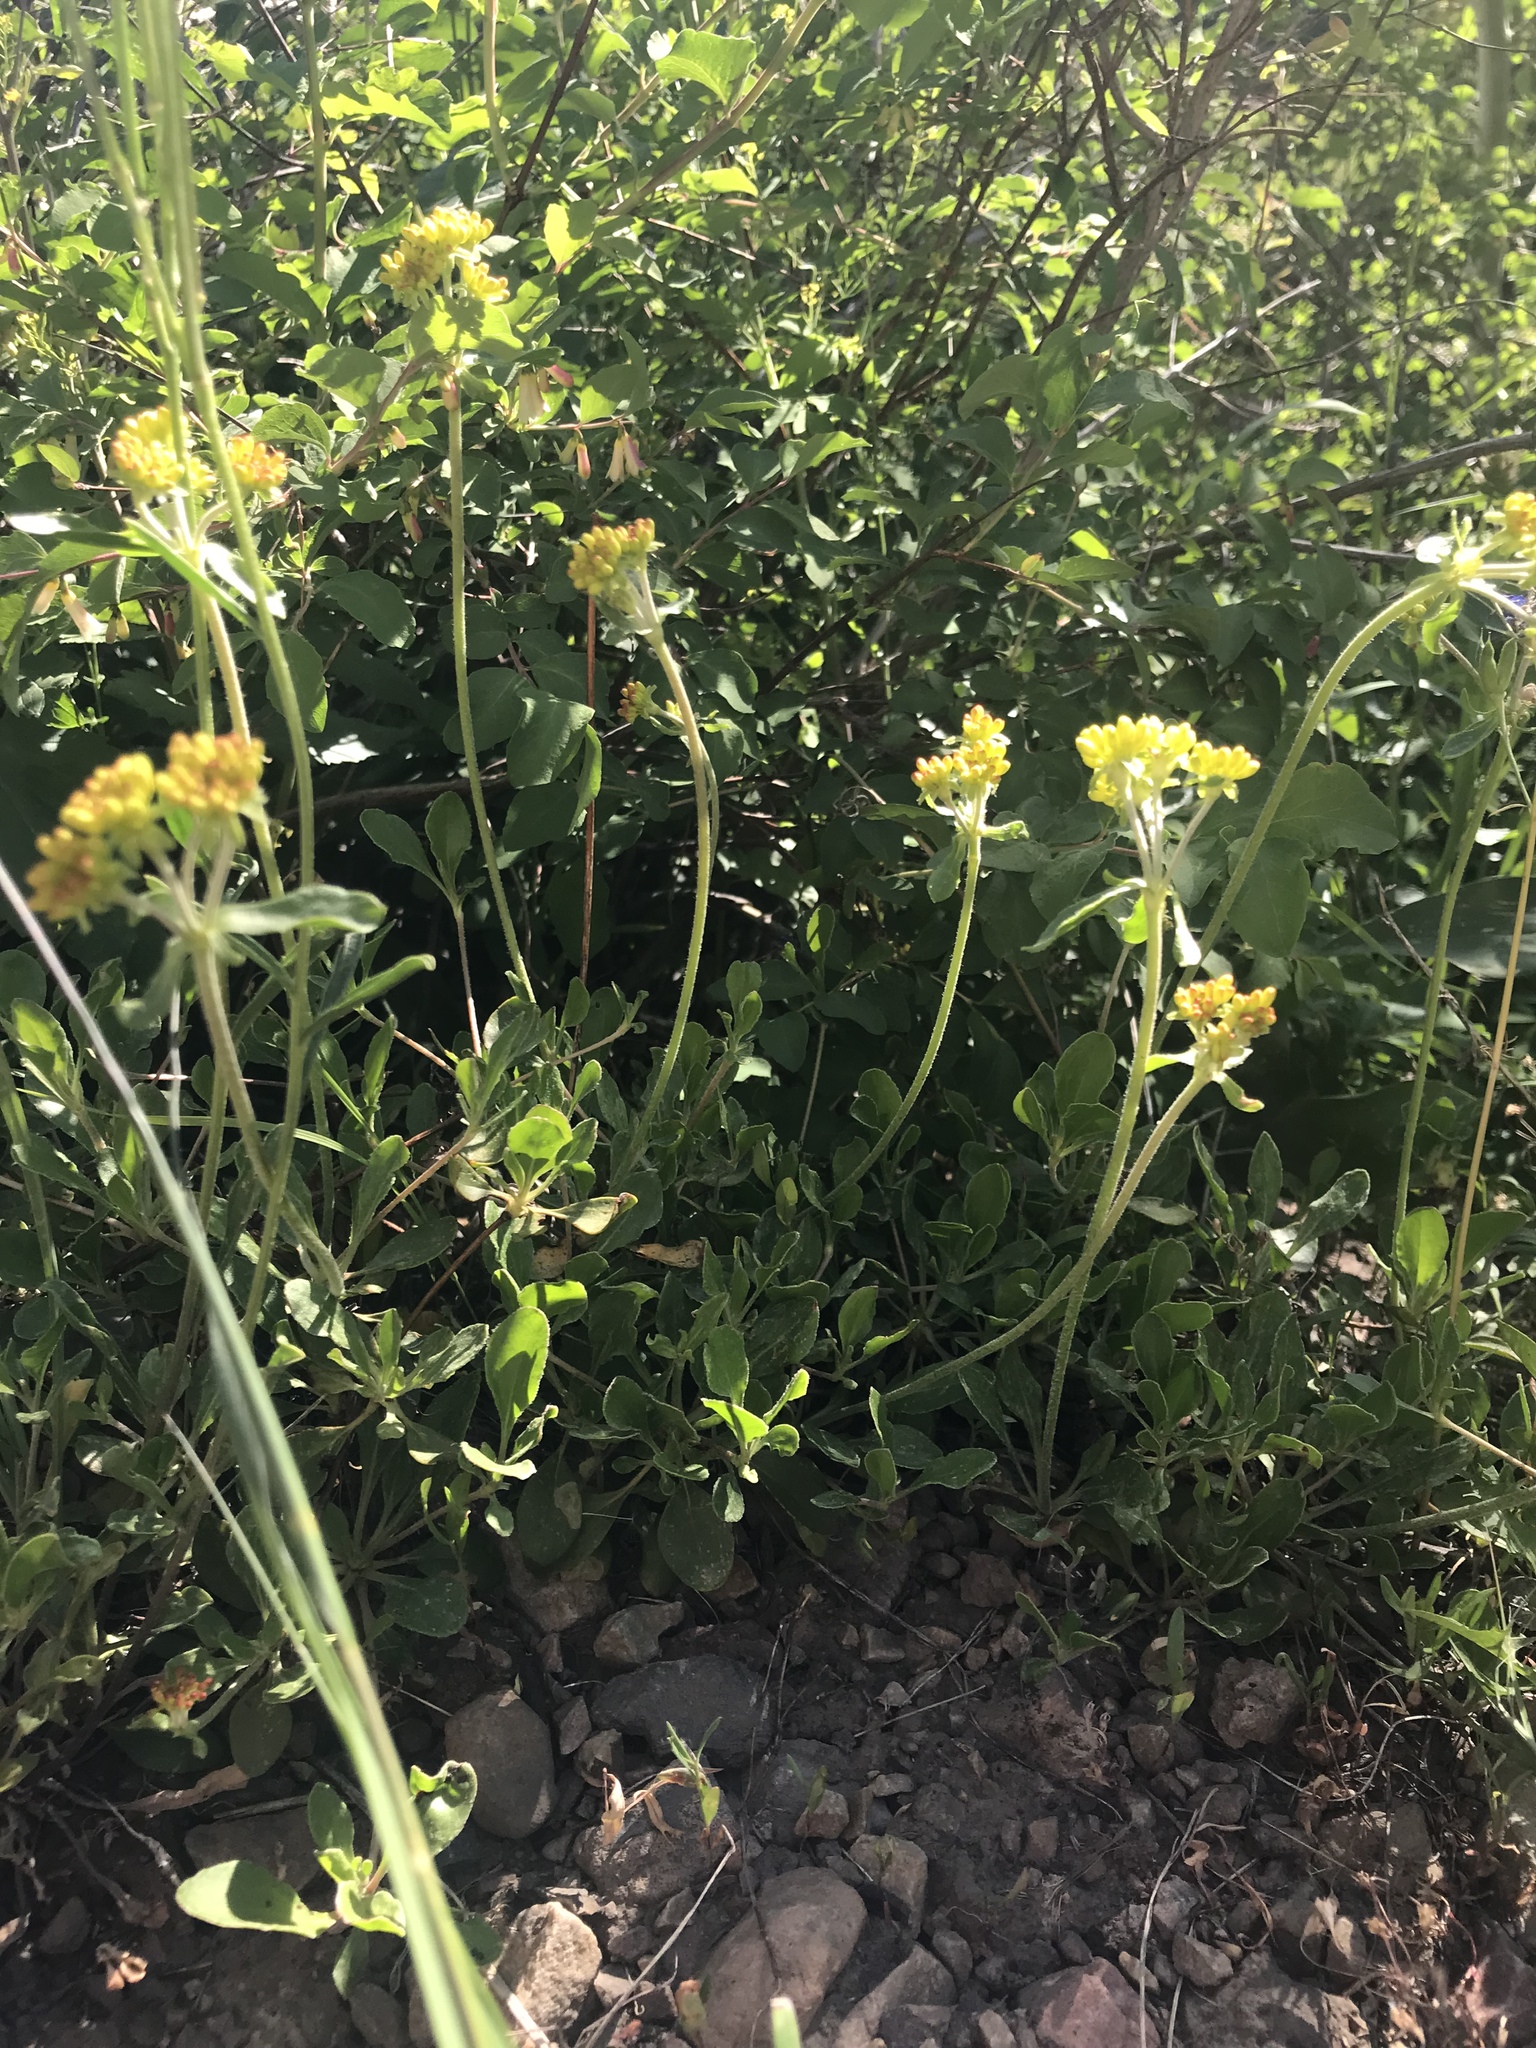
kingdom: Plantae
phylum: Tracheophyta
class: Magnoliopsida
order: Caryophyllales
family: Polygonaceae
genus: Eriogonum
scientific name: Eriogonum umbellatum
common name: Sulfur-buckwheat
